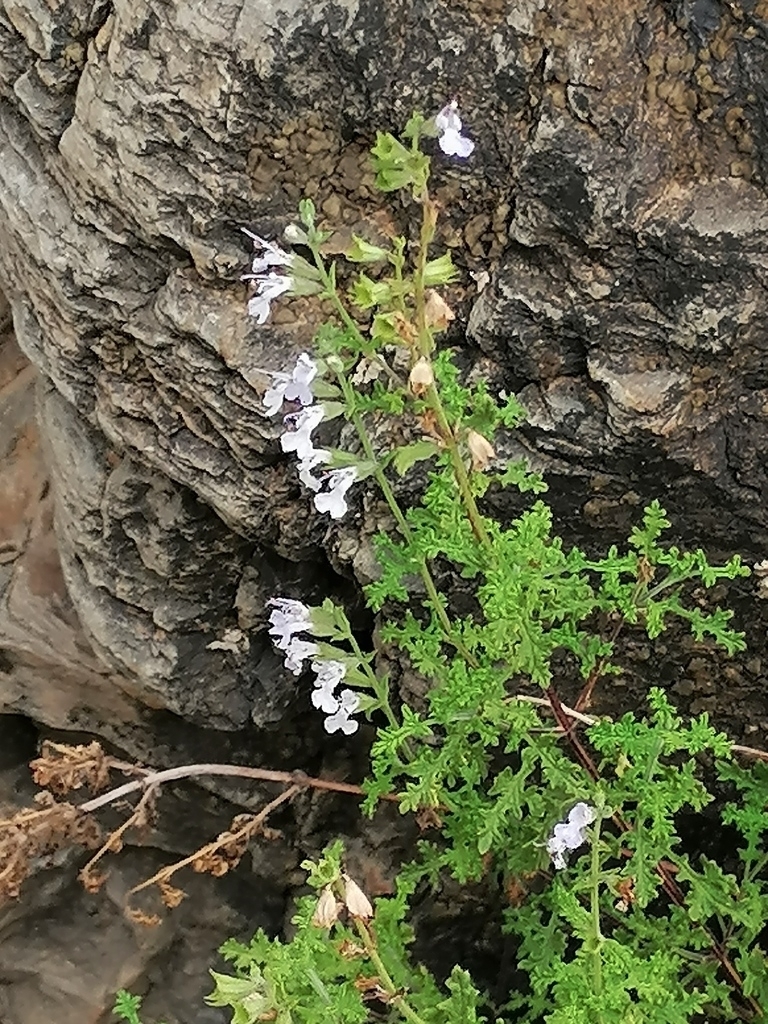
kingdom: Plantae
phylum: Tracheophyta
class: Magnoliopsida
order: Lamiales
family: Lamiaceae
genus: Salvia
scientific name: Salvia namaensis
